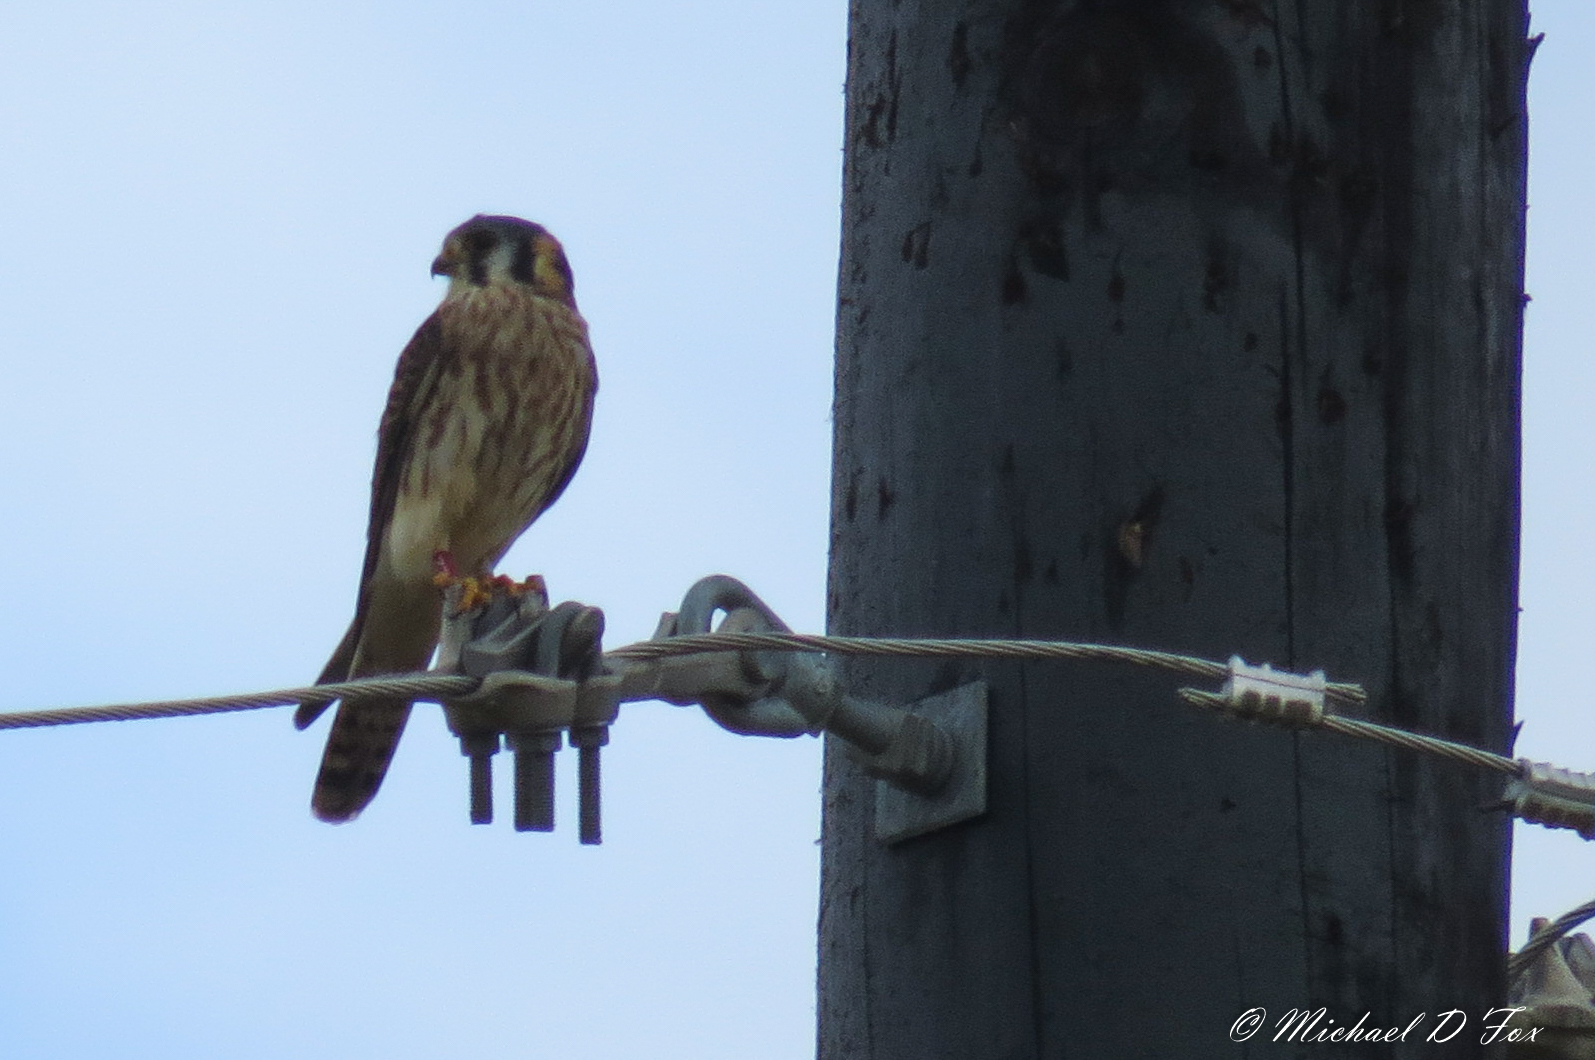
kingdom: Animalia
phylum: Chordata
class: Aves
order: Falconiformes
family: Falconidae
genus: Falco
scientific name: Falco sparverius
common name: American kestrel
